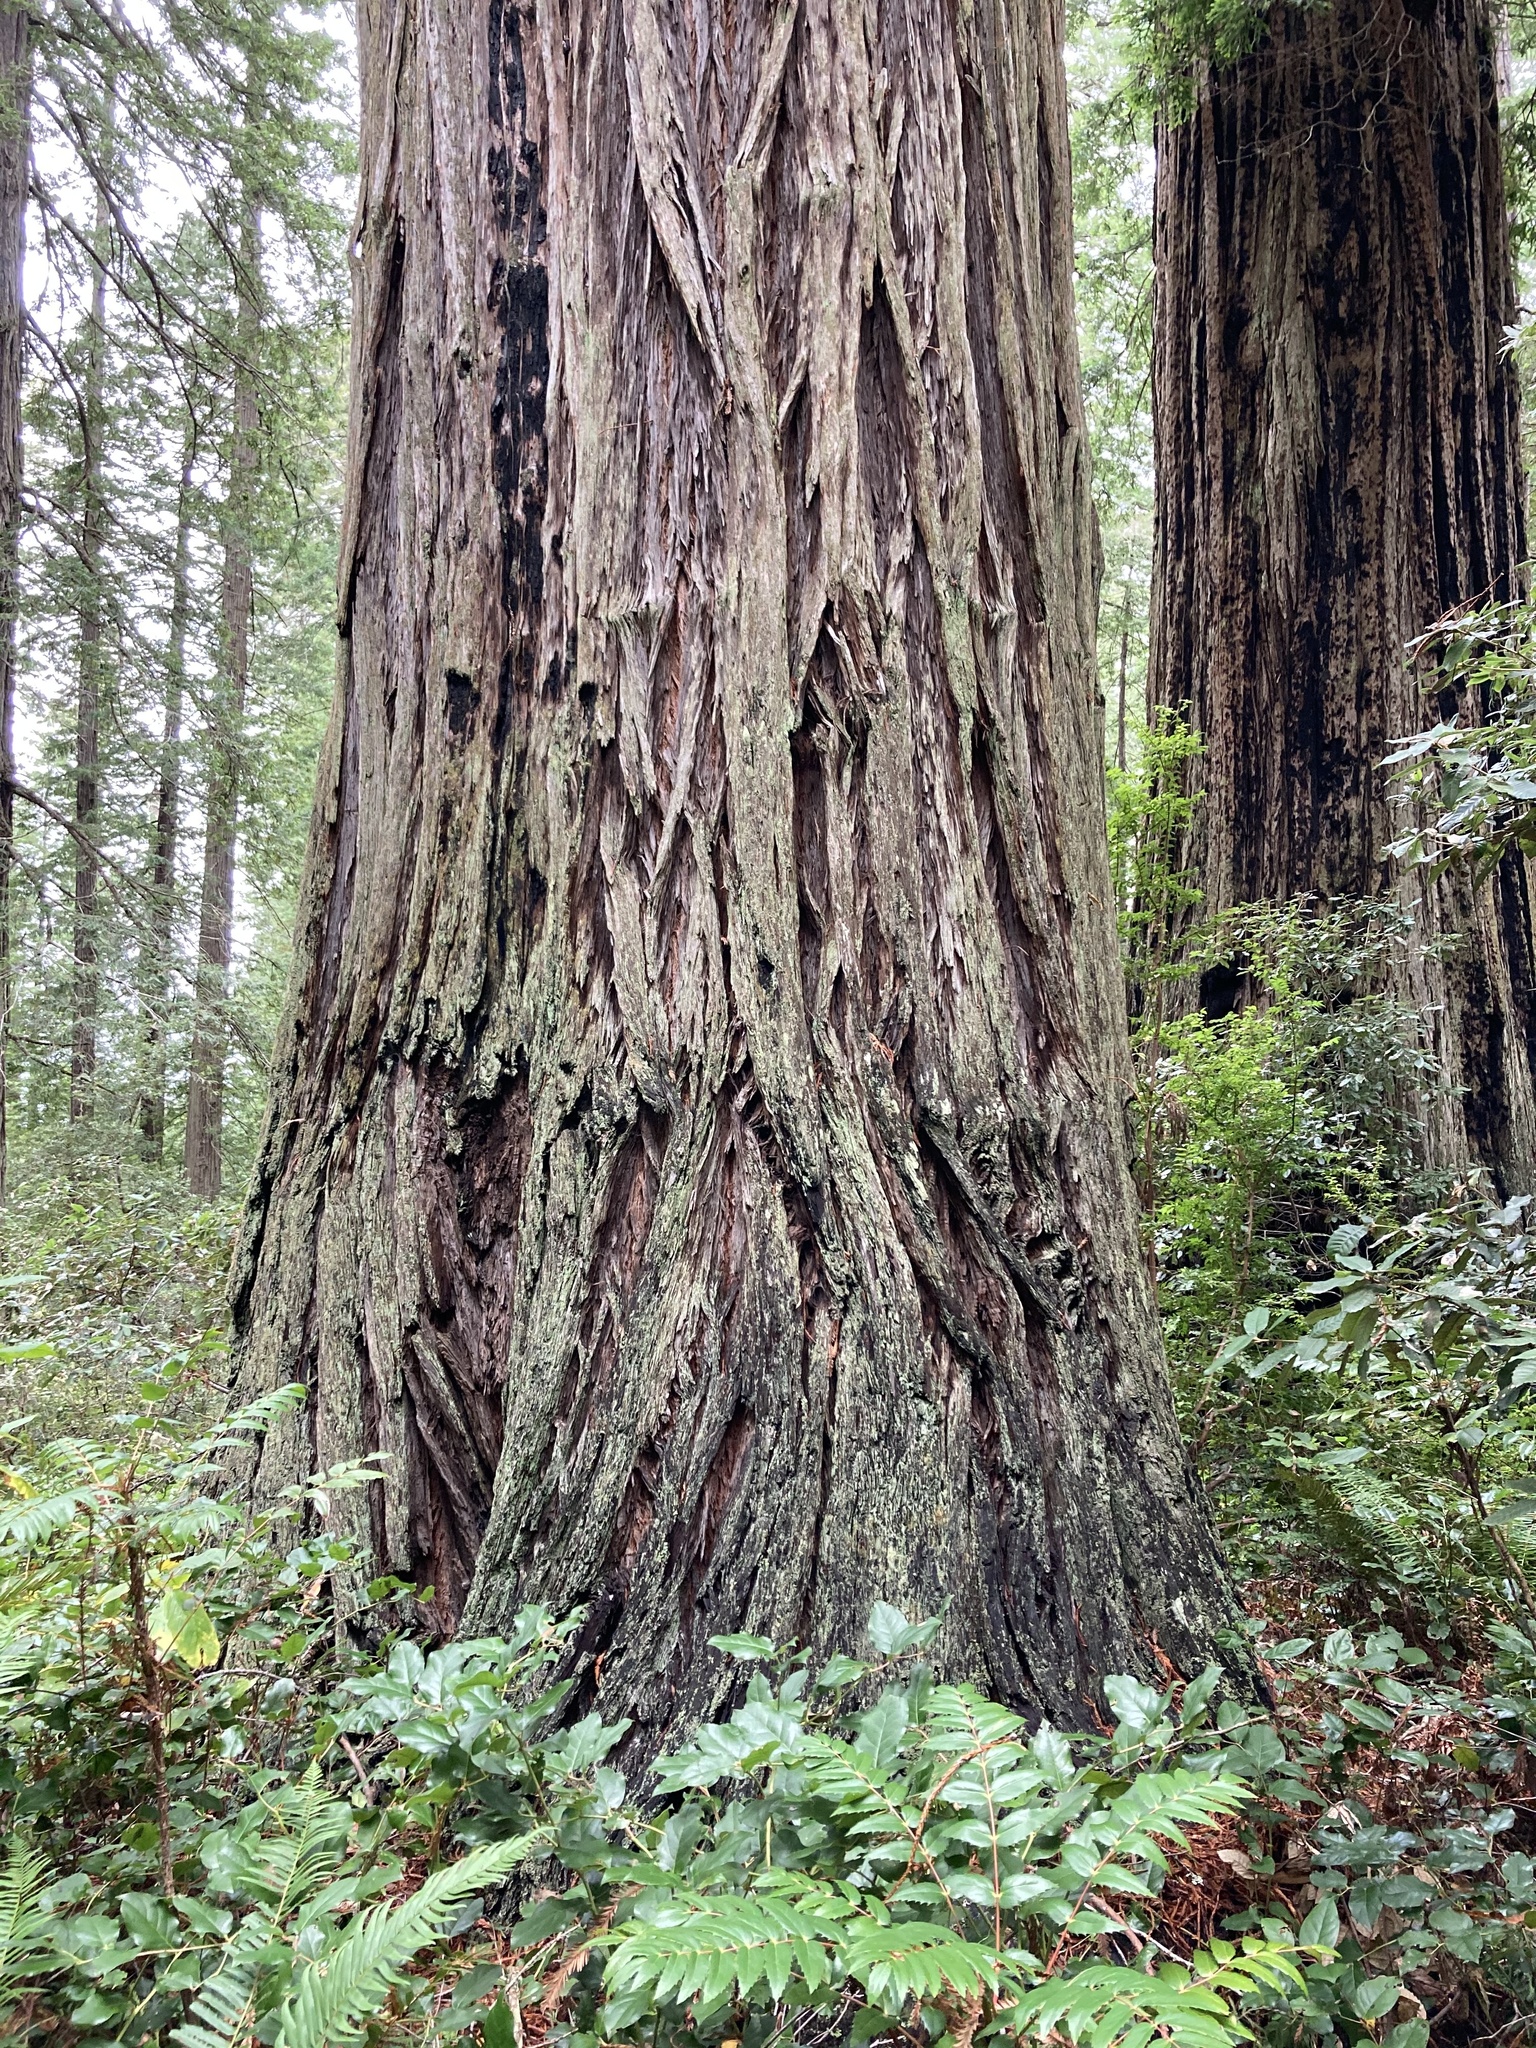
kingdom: Plantae
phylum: Tracheophyta
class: Pinopsida
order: Pinales
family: Cupressaceae
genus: Sequoia
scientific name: Sequoia sempervirens
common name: Coast redwood
